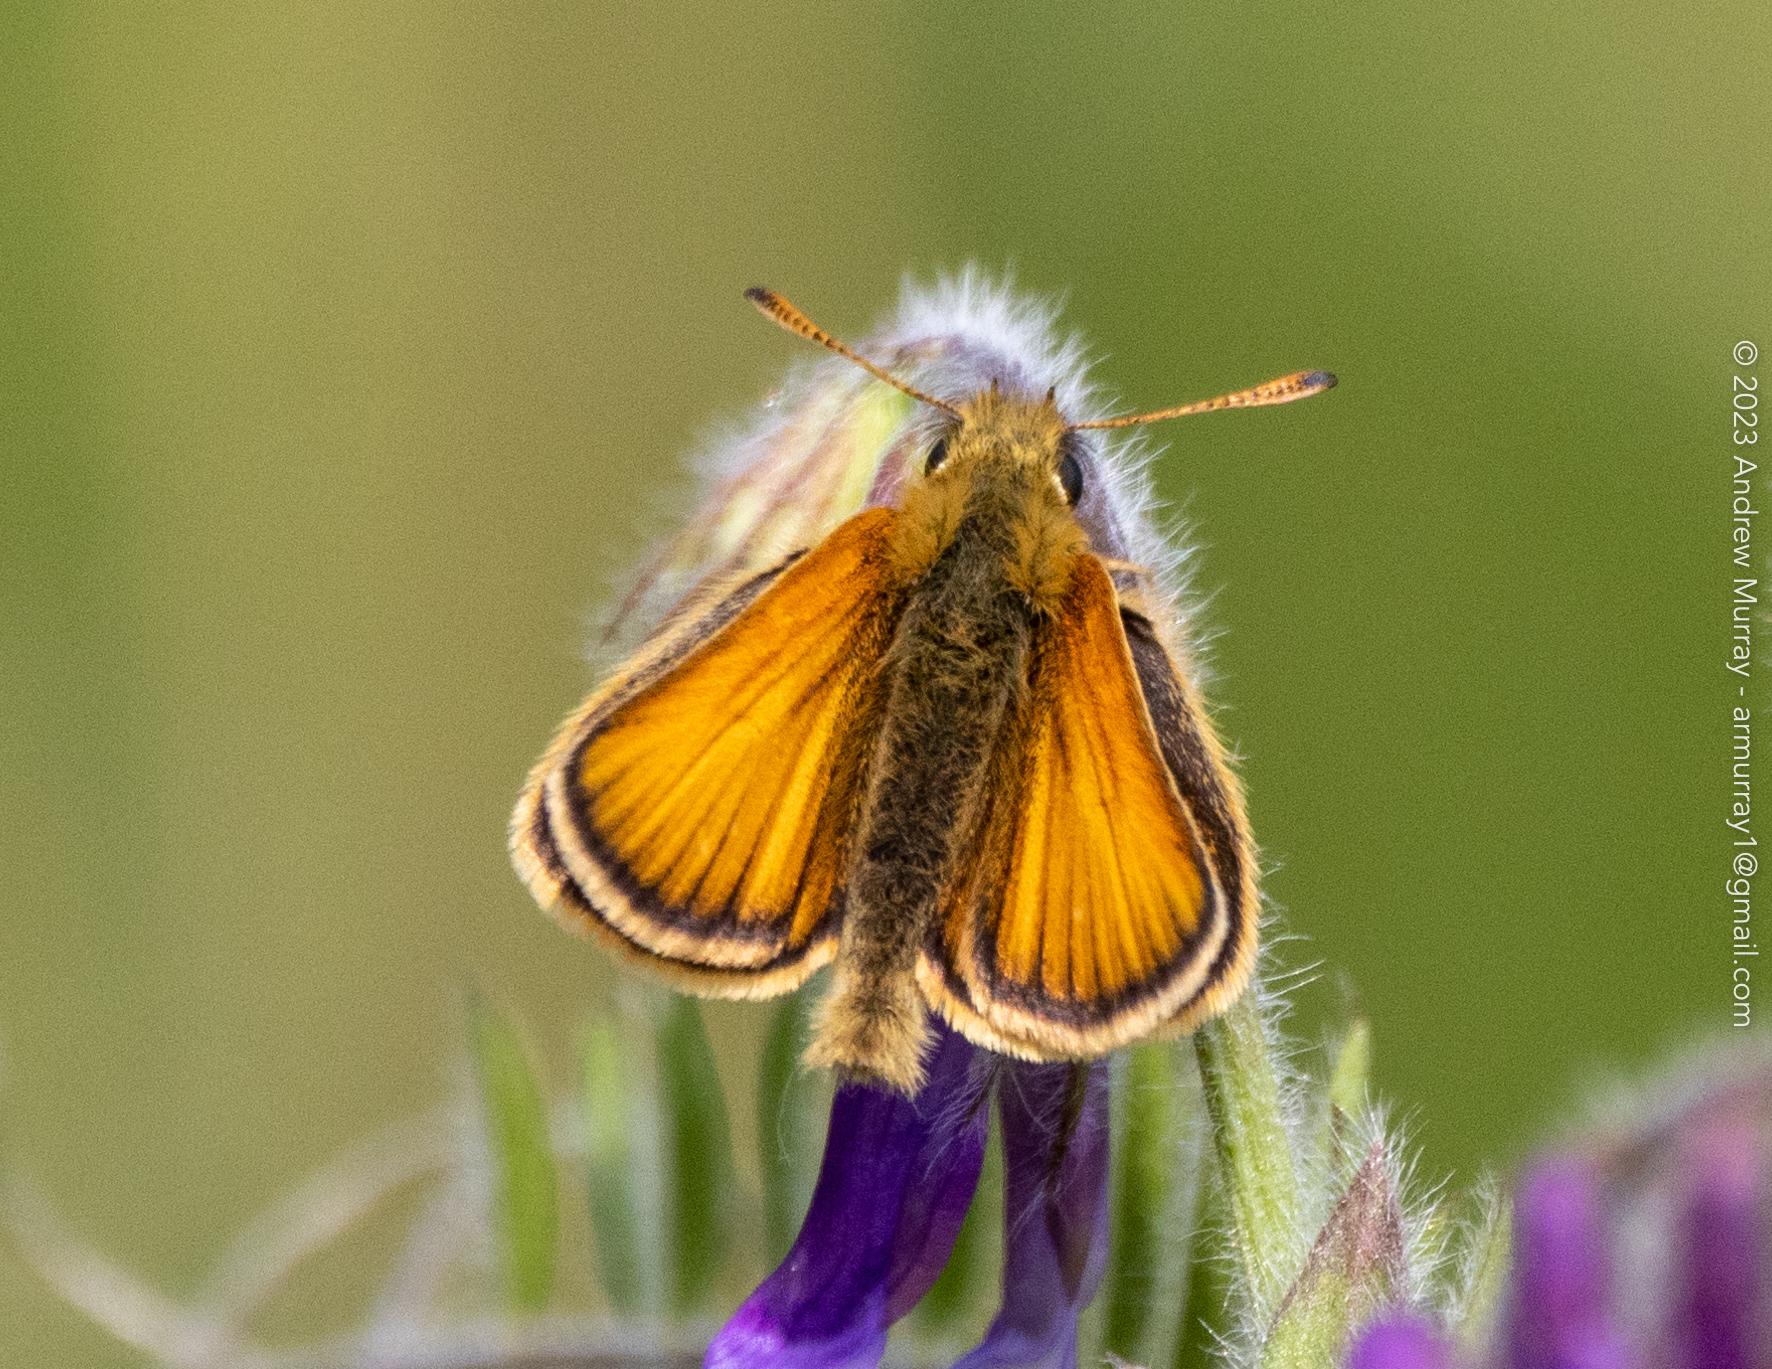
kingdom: Animalia
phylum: Arthropoda
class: Insecta
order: Lepidoptera
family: Hesperiidae
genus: Thymelicus
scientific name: Thymelicus lineola
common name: Essex skipper
